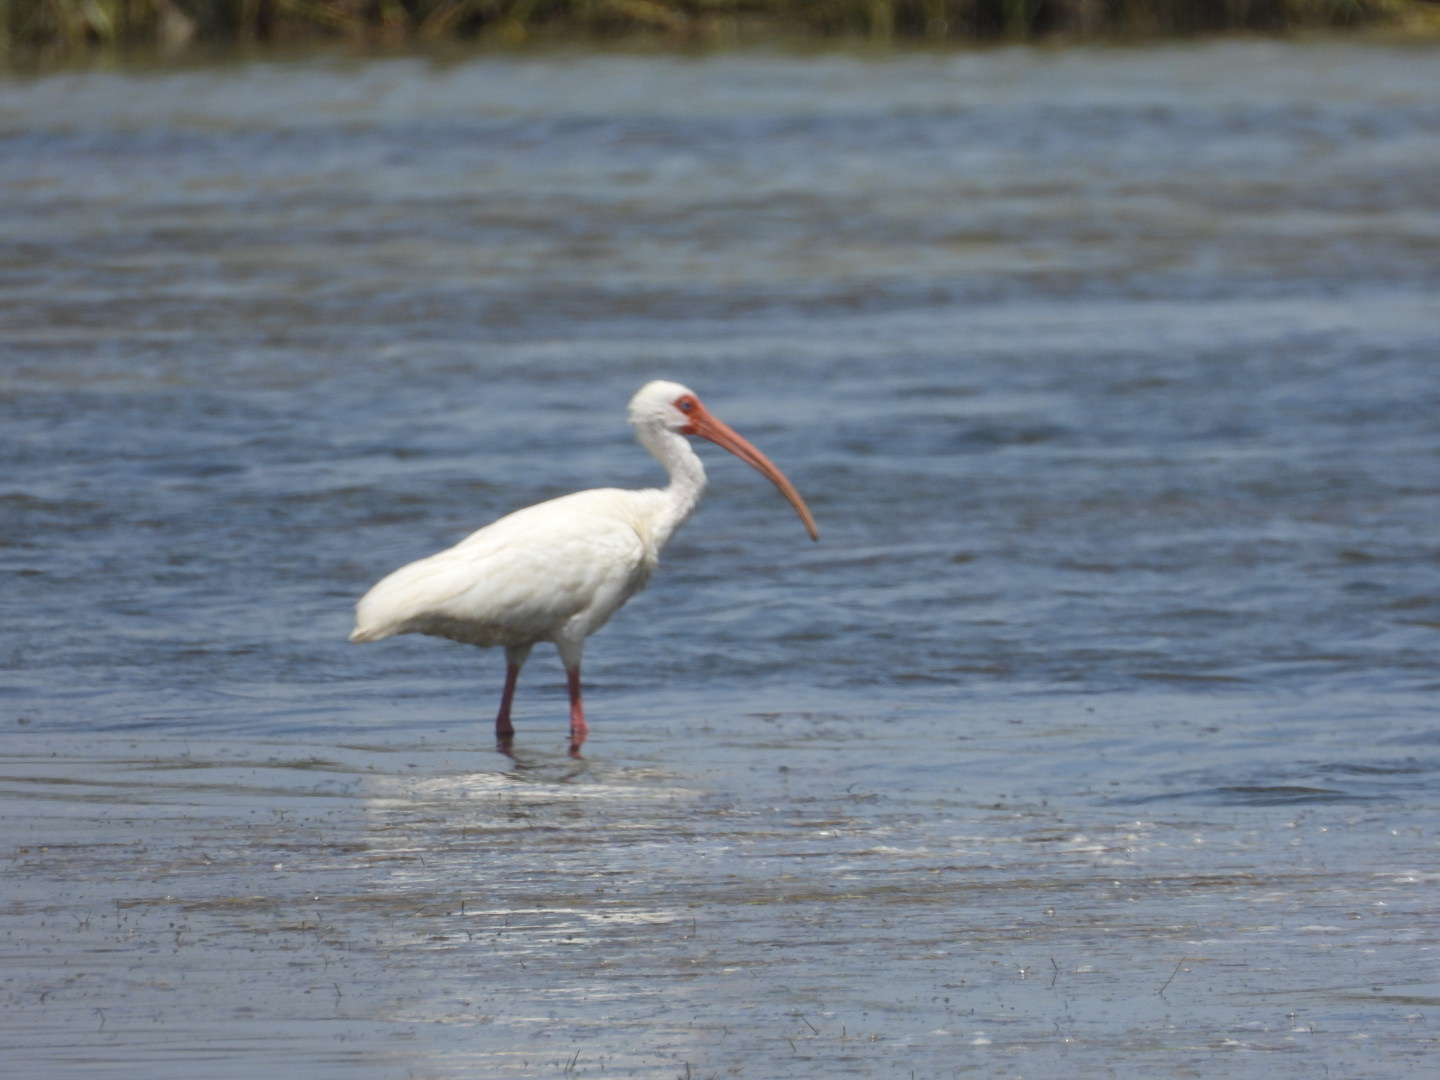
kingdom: Animalia
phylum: Chordata
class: Aves
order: Pelecaniformes
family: Threskiornithidae
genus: Eudocimus
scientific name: Eudocimus albus
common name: White ibis
